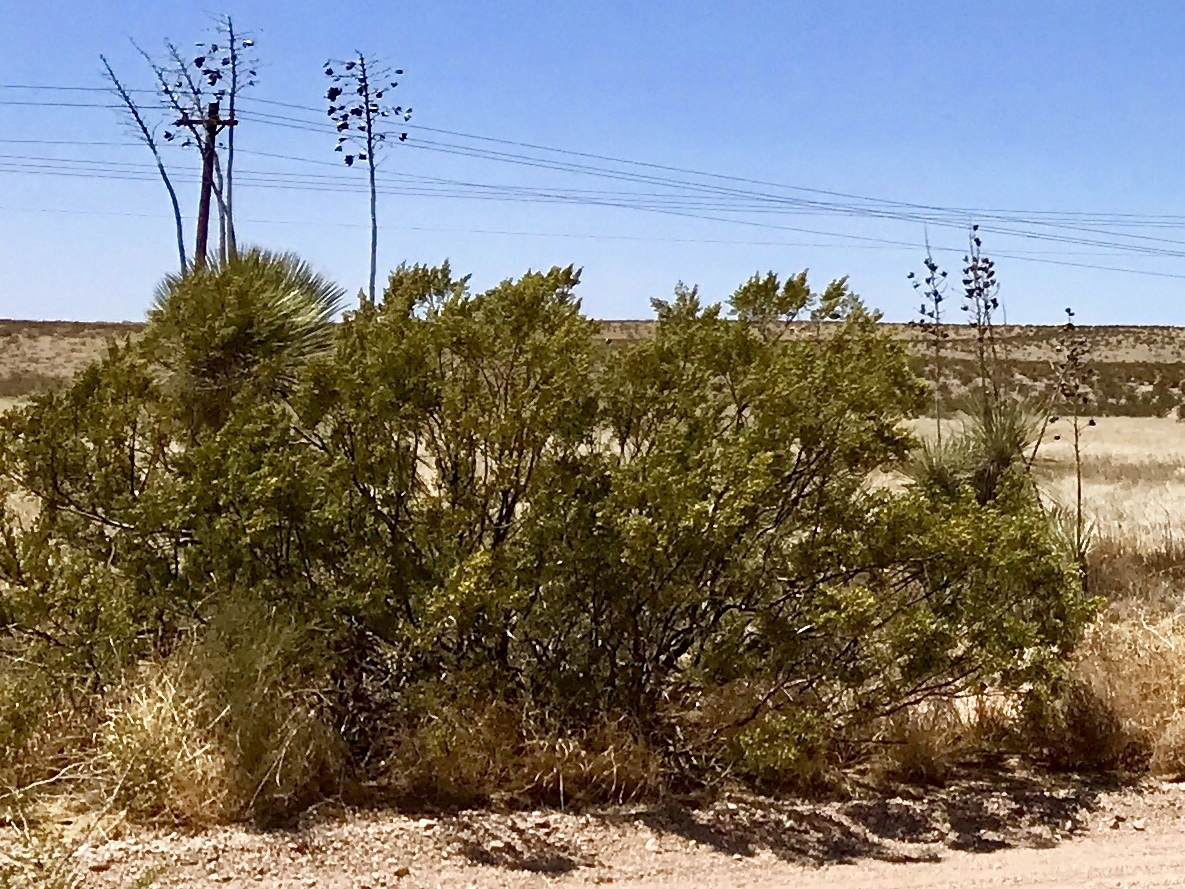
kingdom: Plantae
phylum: Tracheophyta
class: Magnoliopsida
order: Zygophyllales
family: Zygophyllaceae
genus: Larrea
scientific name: Larrea tridentata
